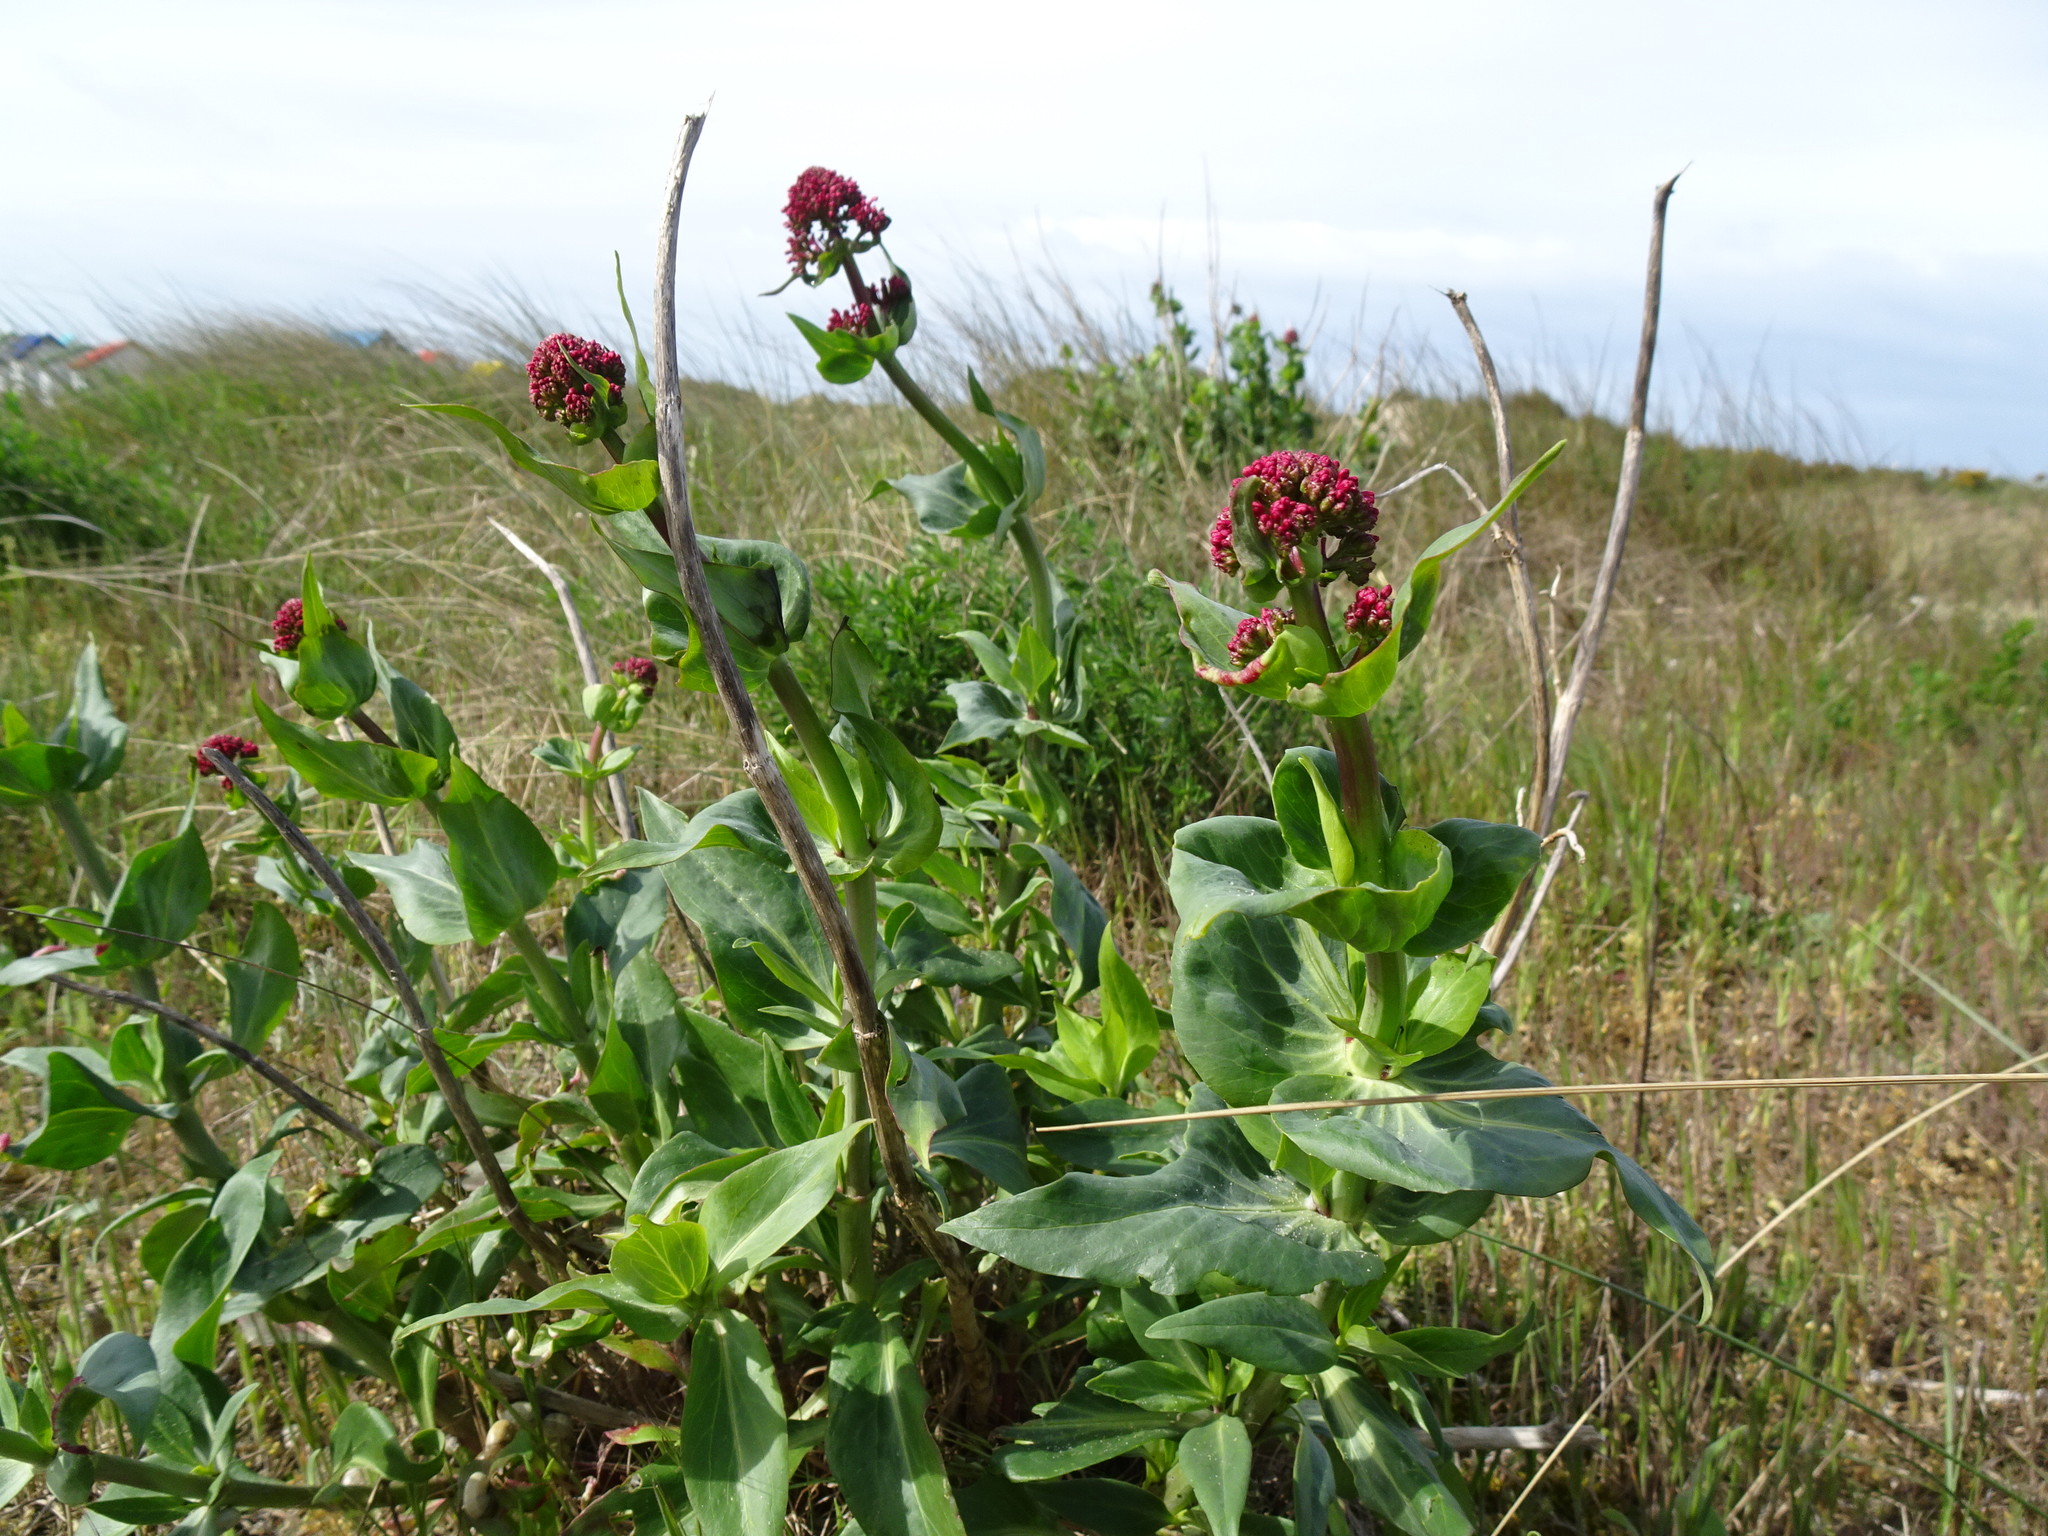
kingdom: Plantae
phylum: Tracheophyta
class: Magnoliopsida
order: Dipsacales
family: Caprifoliaceae
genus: Centranthus
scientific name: Centranthus ruber
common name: Red valerian
